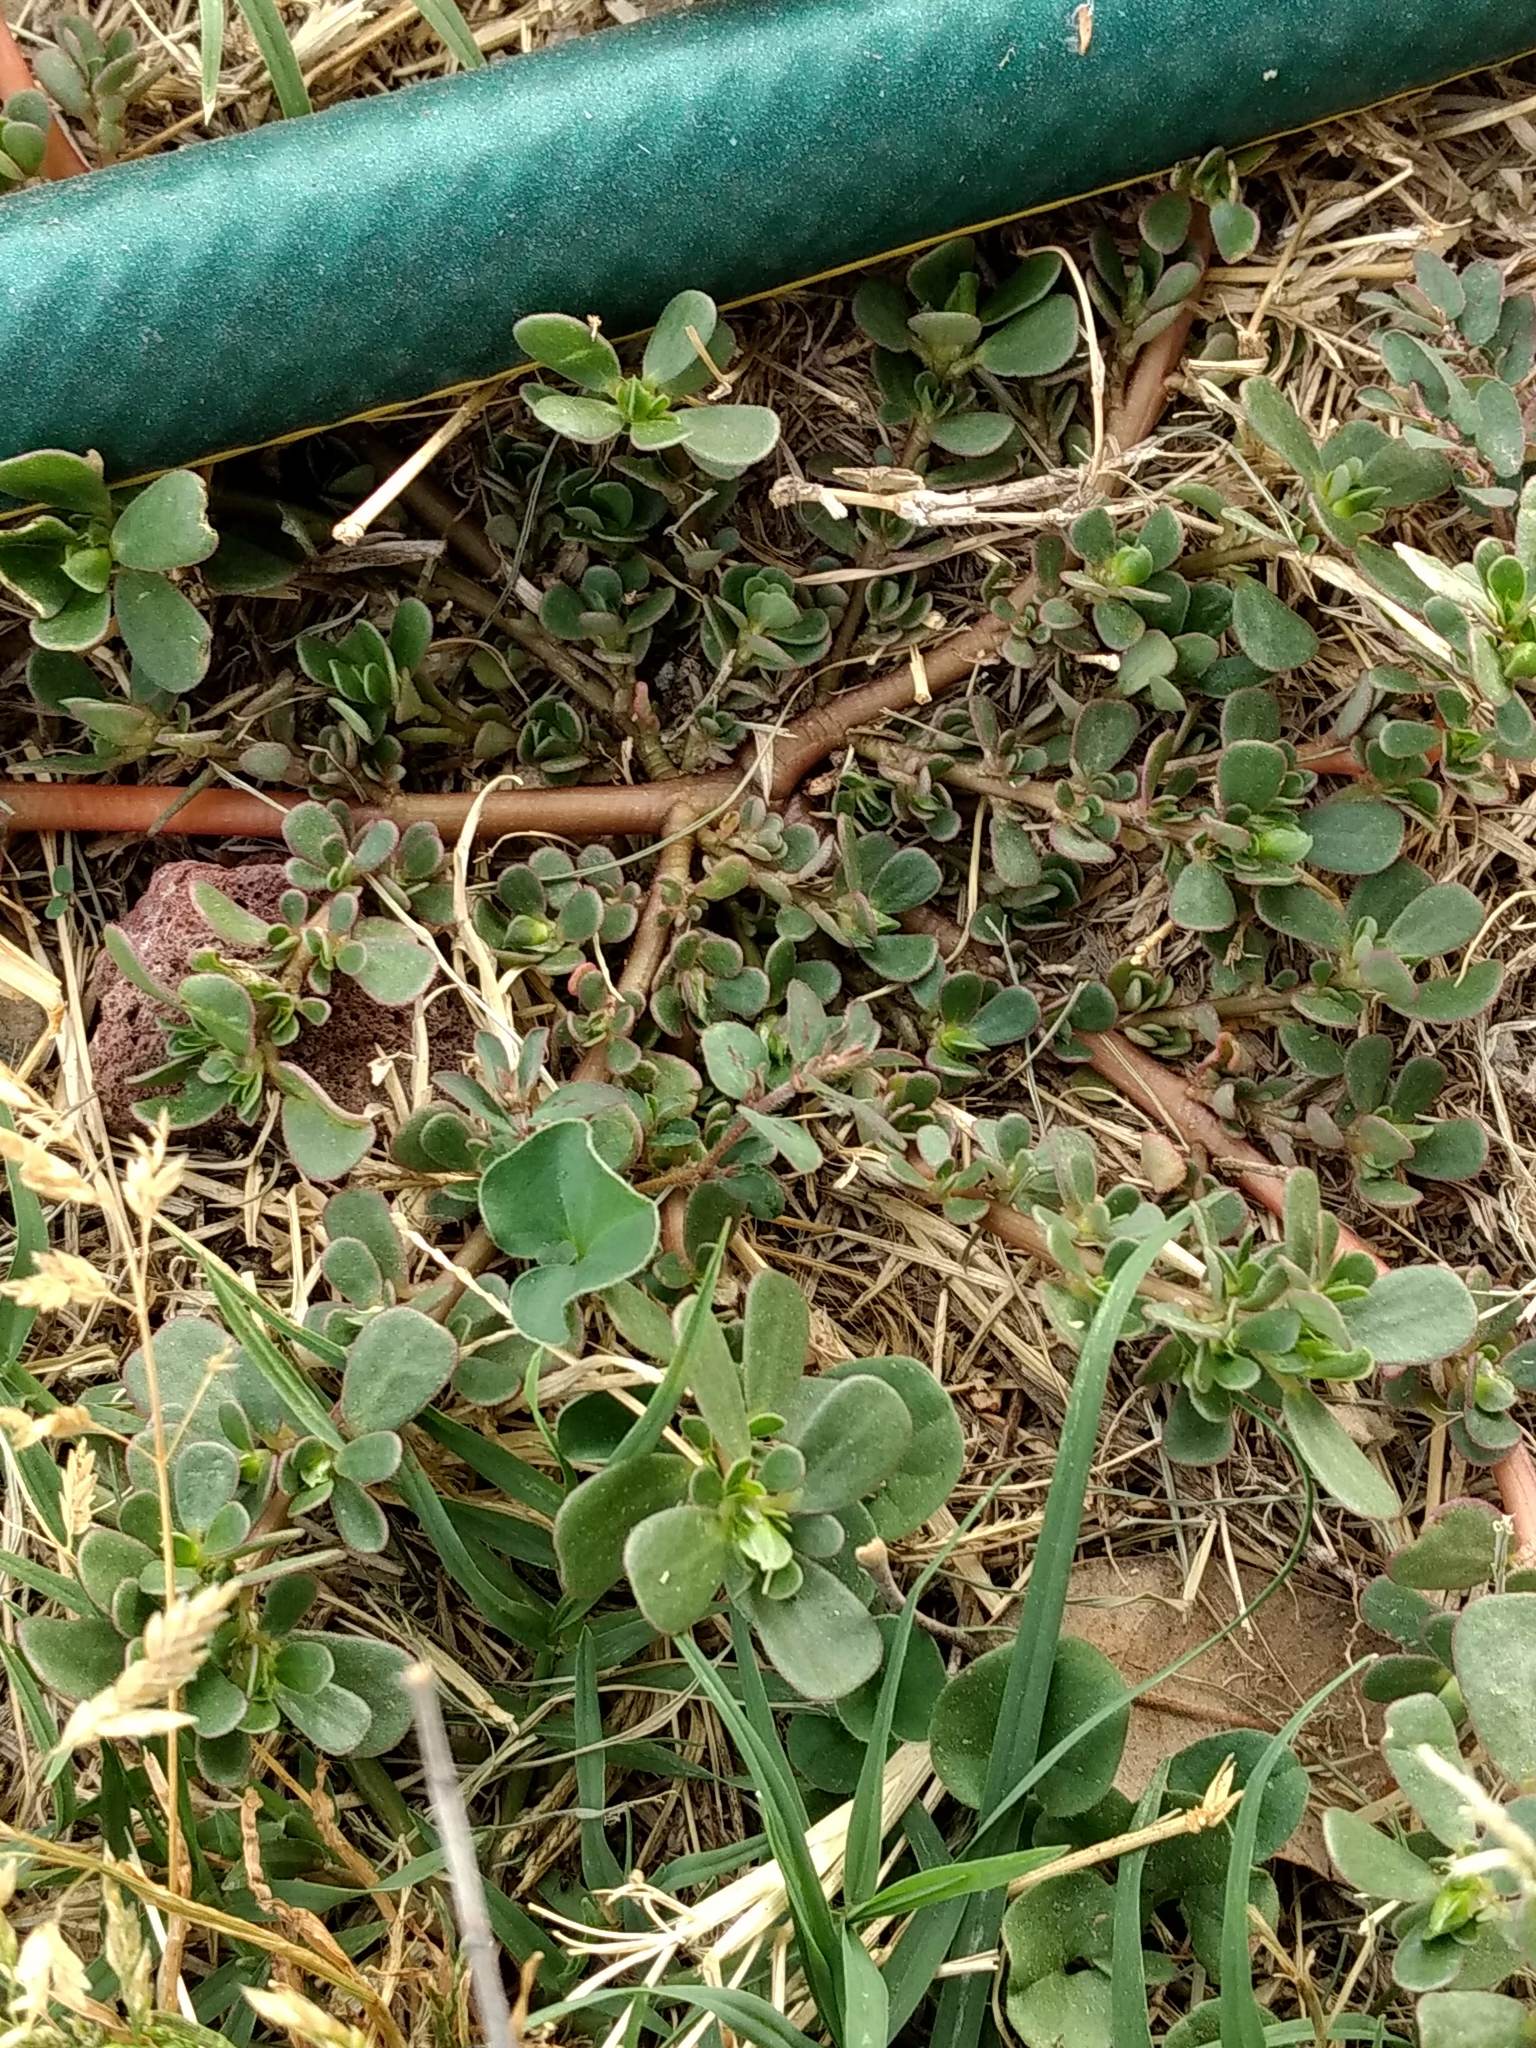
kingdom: Plantae
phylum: Tracheophyta
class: Magnoliopsida
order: Caryophyllales
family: Portulacaceae
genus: Portulaca
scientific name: Portulaca oleracea
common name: Common purslane
